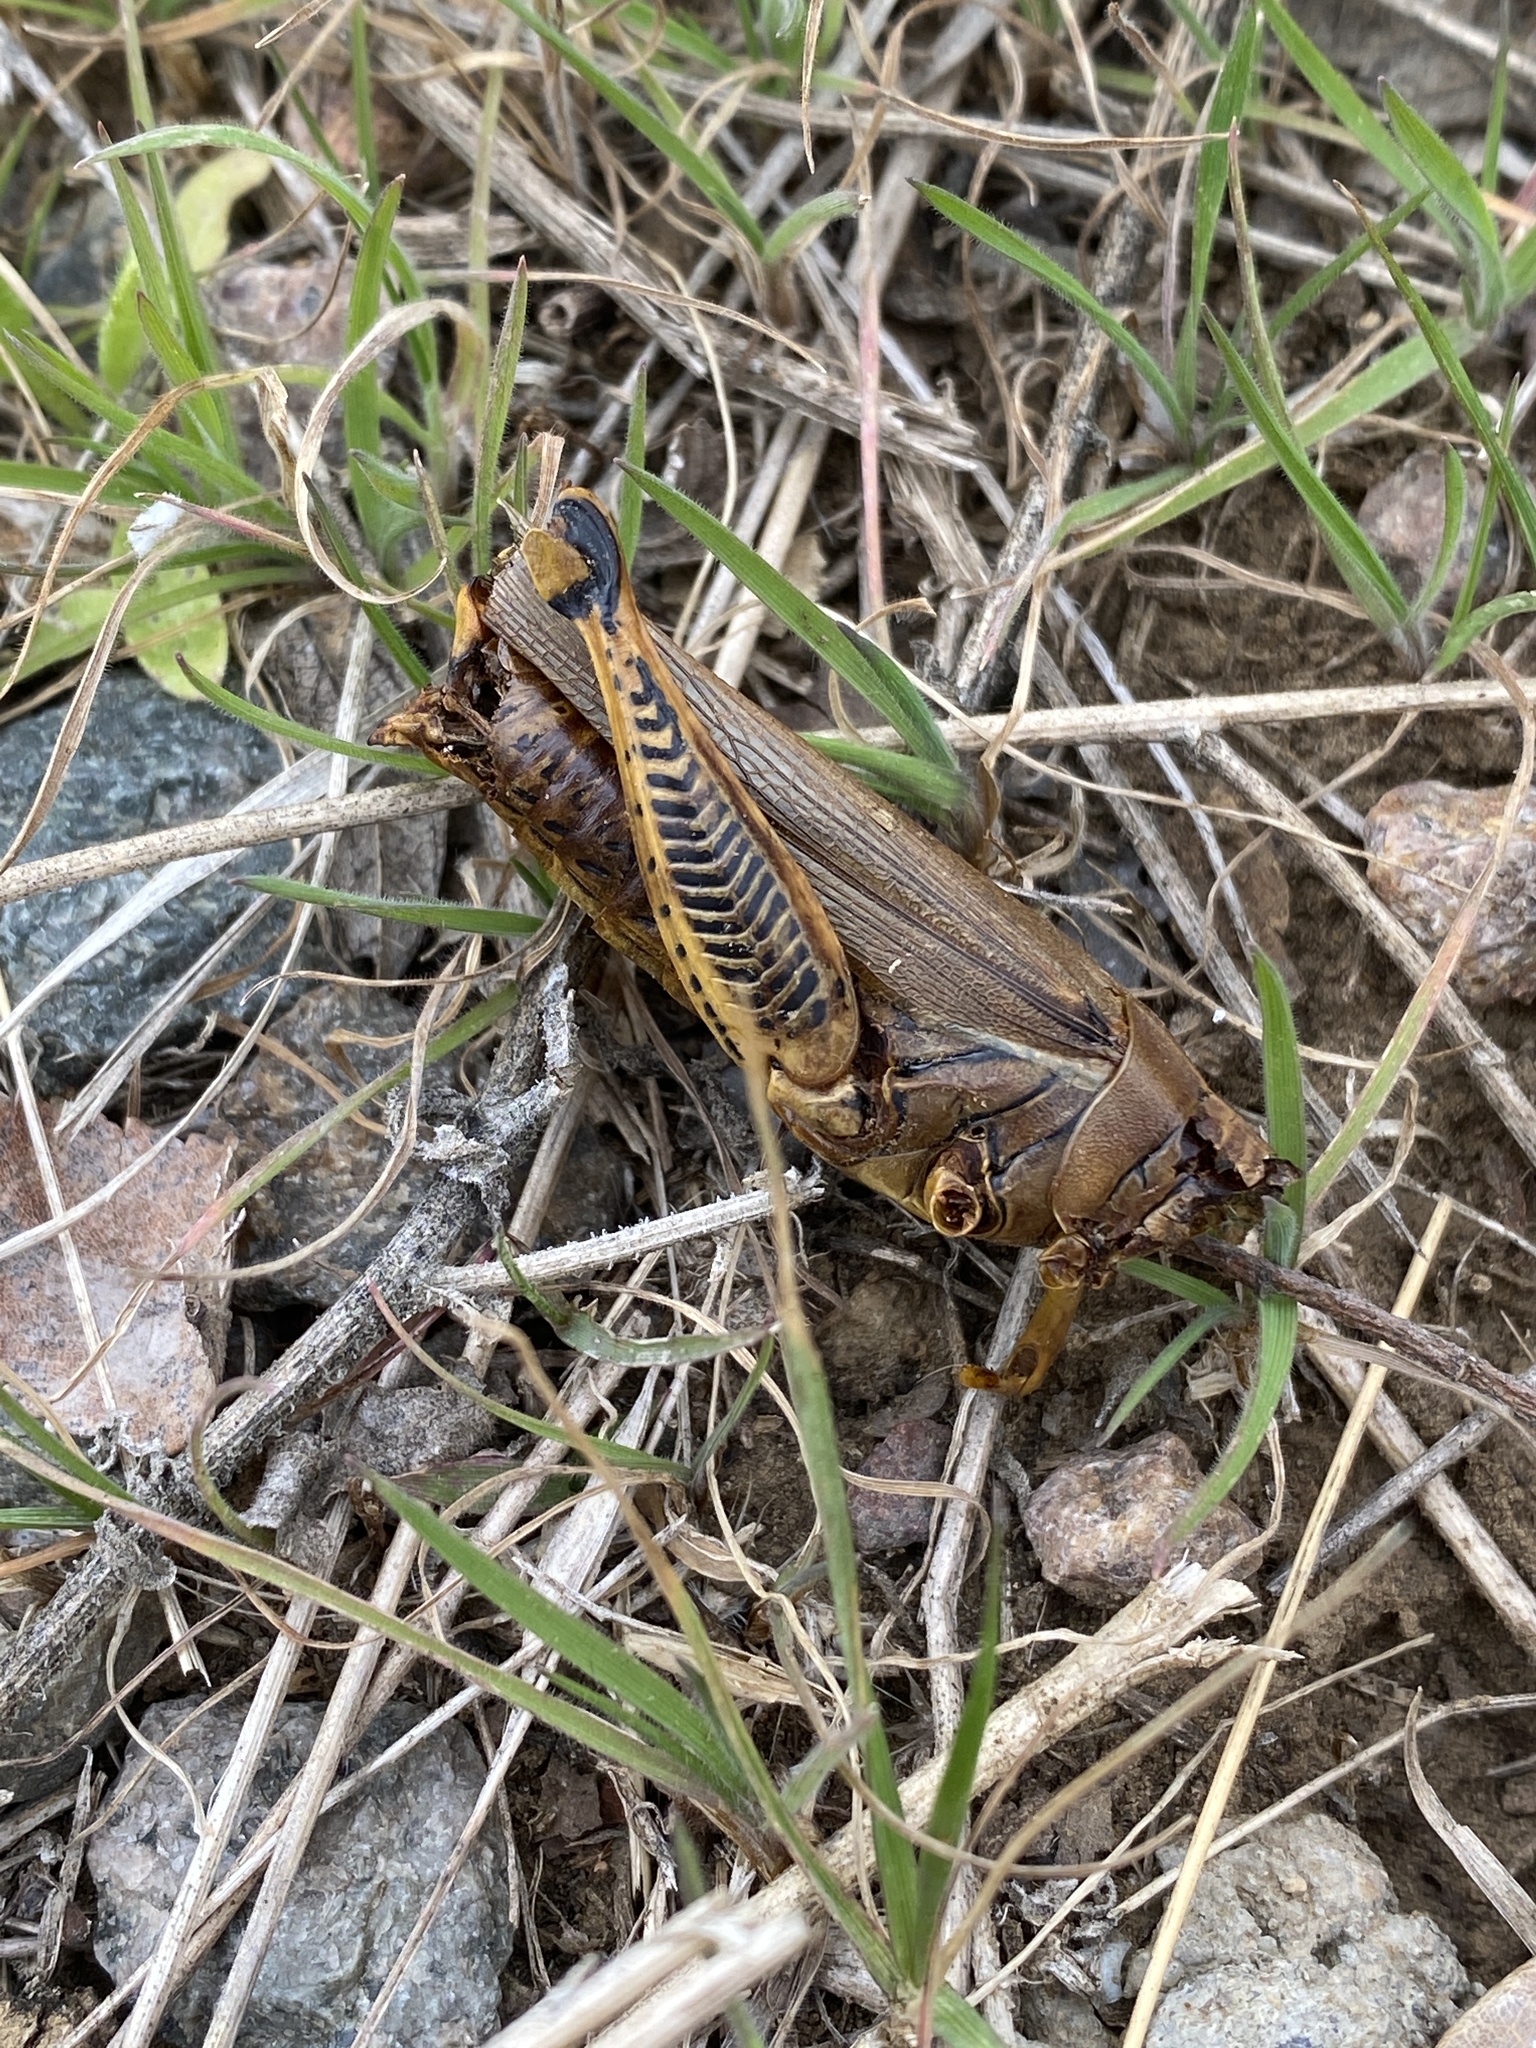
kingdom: Animalia
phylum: Arthropoda
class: Insecta
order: Orthoptera
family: Acrididae
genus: Melanoplus
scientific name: Melanoplus differentialis
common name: Differential grasshopper
